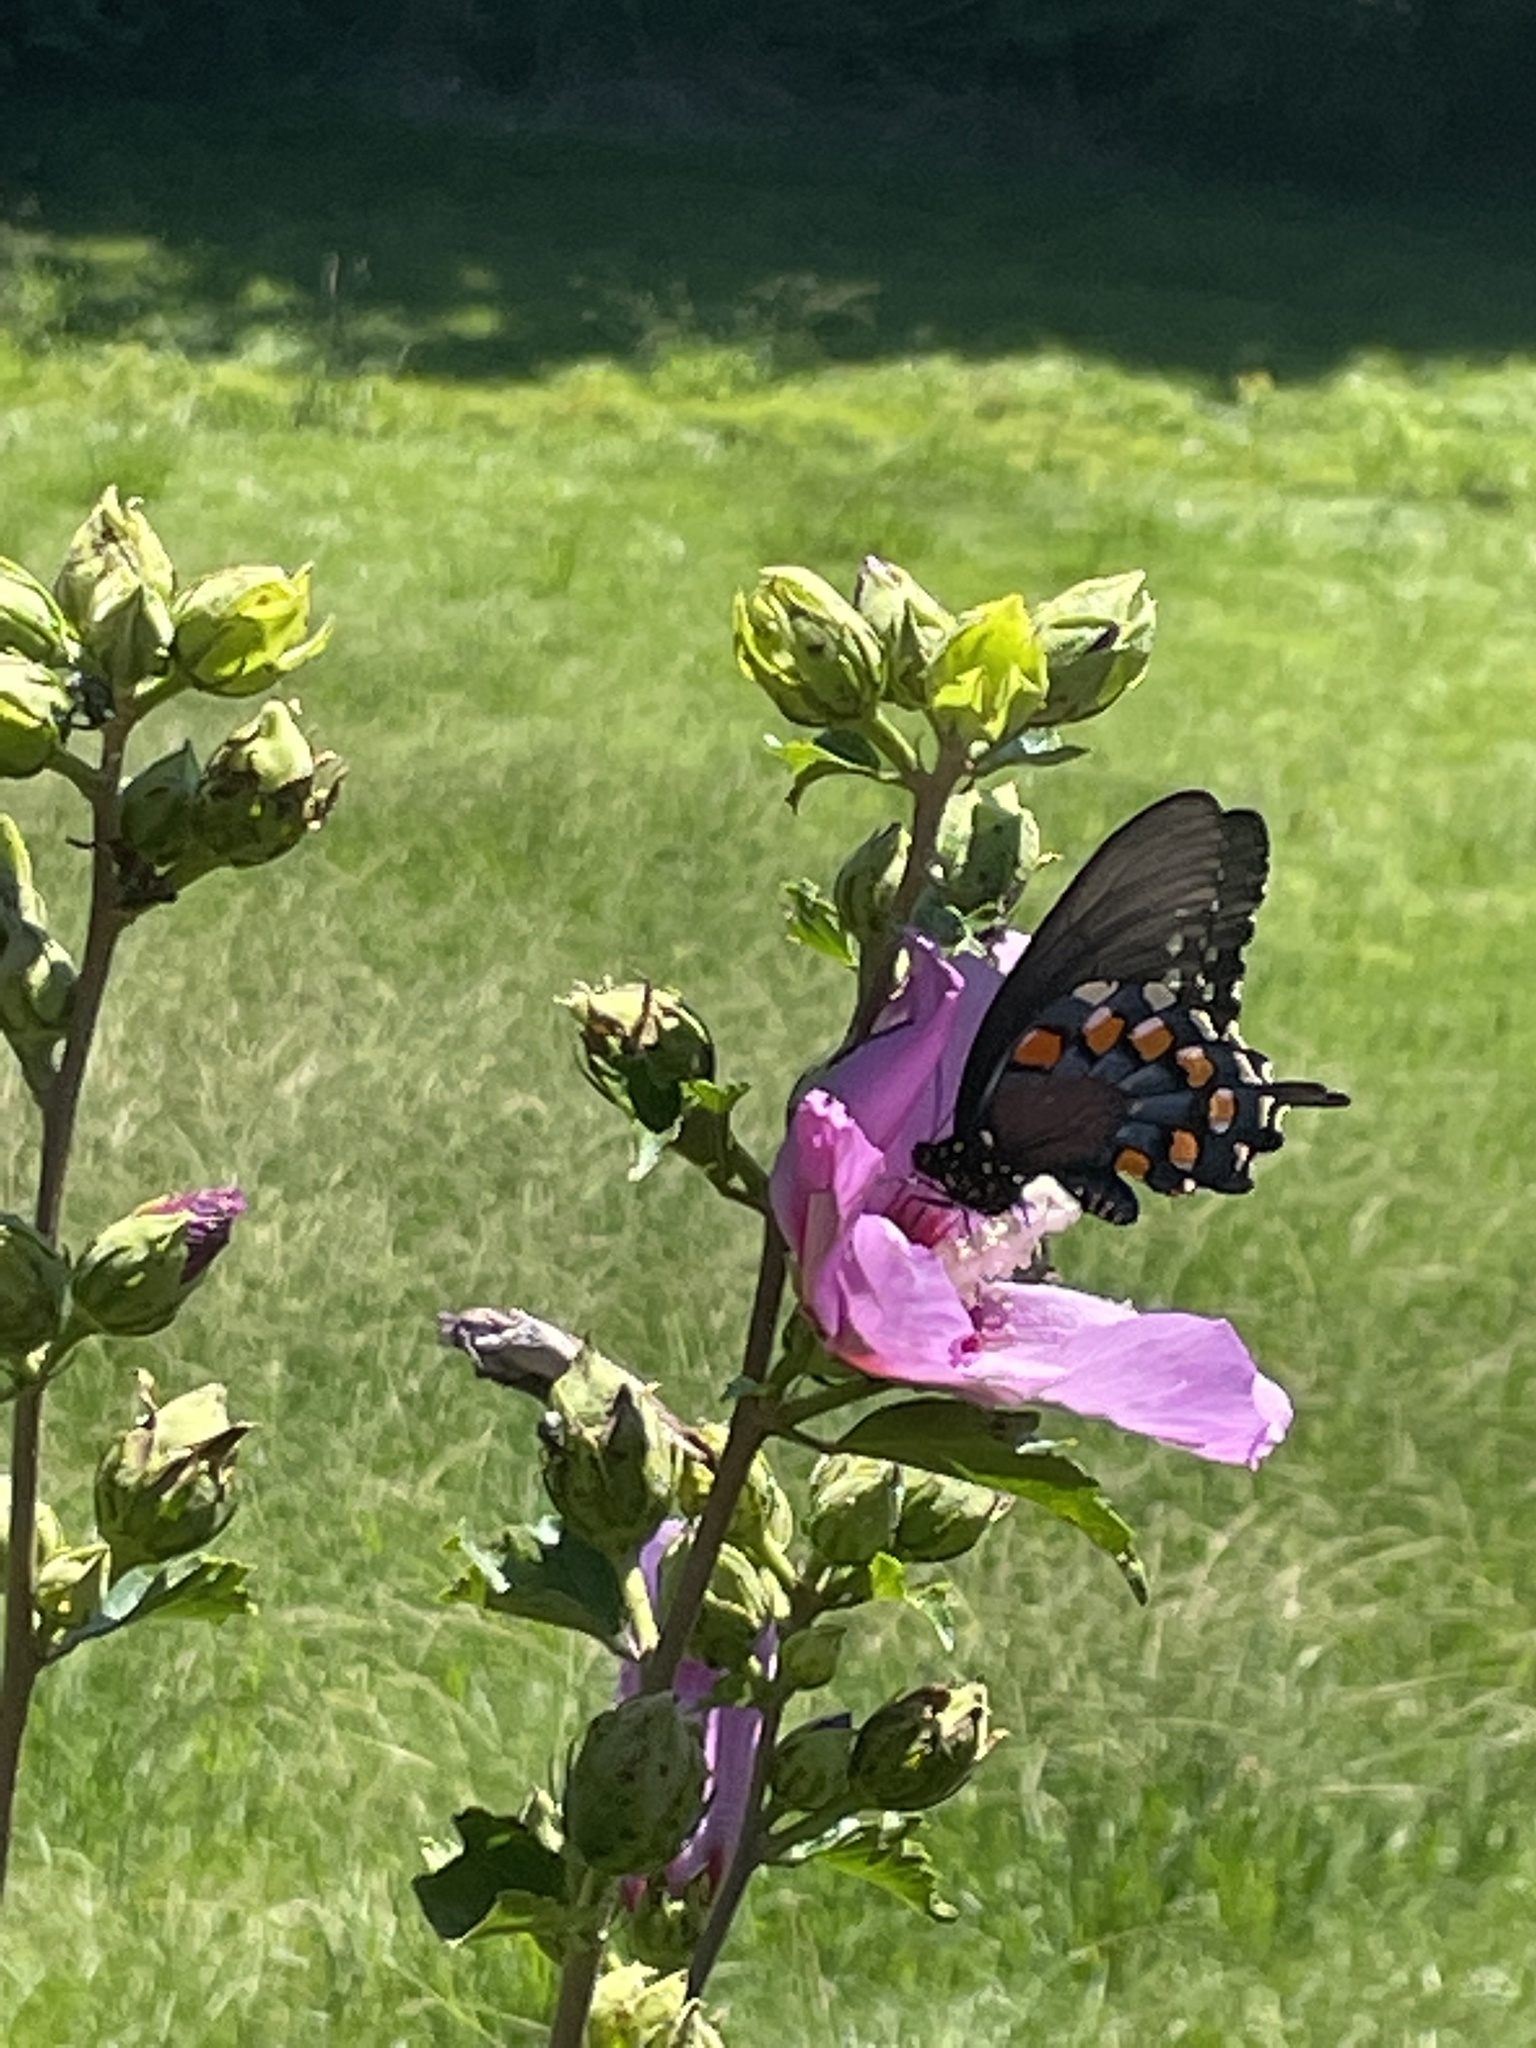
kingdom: Animalia
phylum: Arthropoda
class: Insecta
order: Lepidoptera
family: Papilionidae
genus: Battus
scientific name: Battus philenor
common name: Pipevine swallowtail
